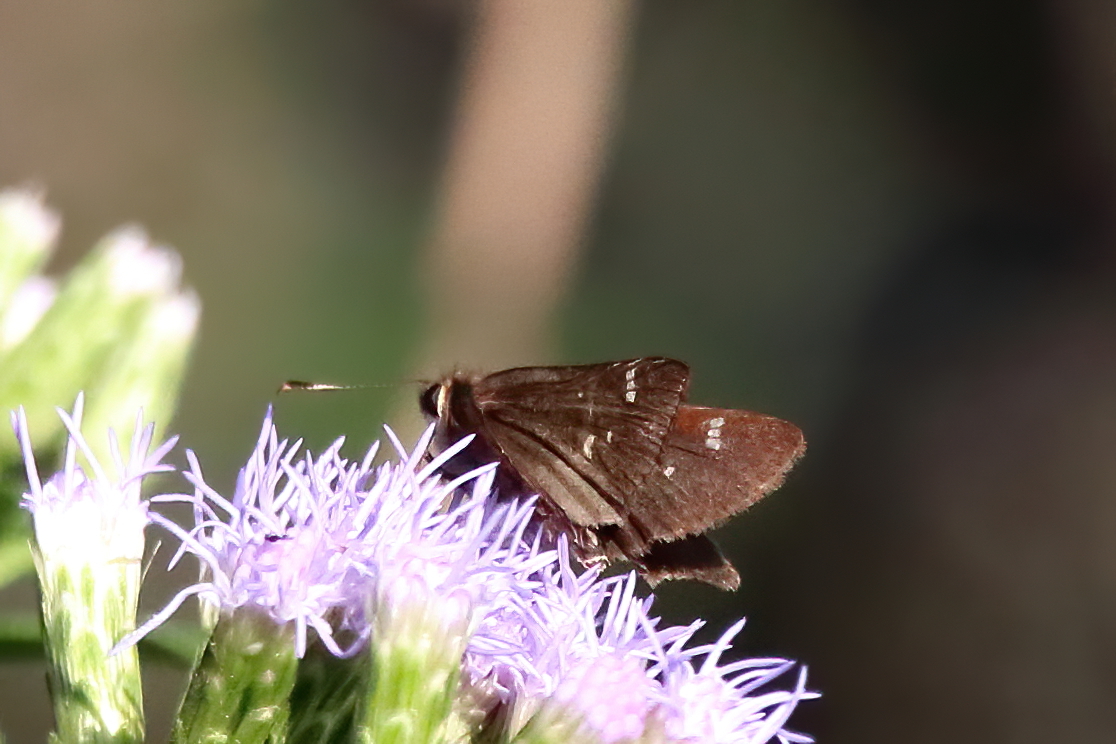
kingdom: Animalia
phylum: Arthropoda
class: Insecta
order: Lepidoptera
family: Hesperiidae
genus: Lerema
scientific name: Lerema accius
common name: Clouded skipper
